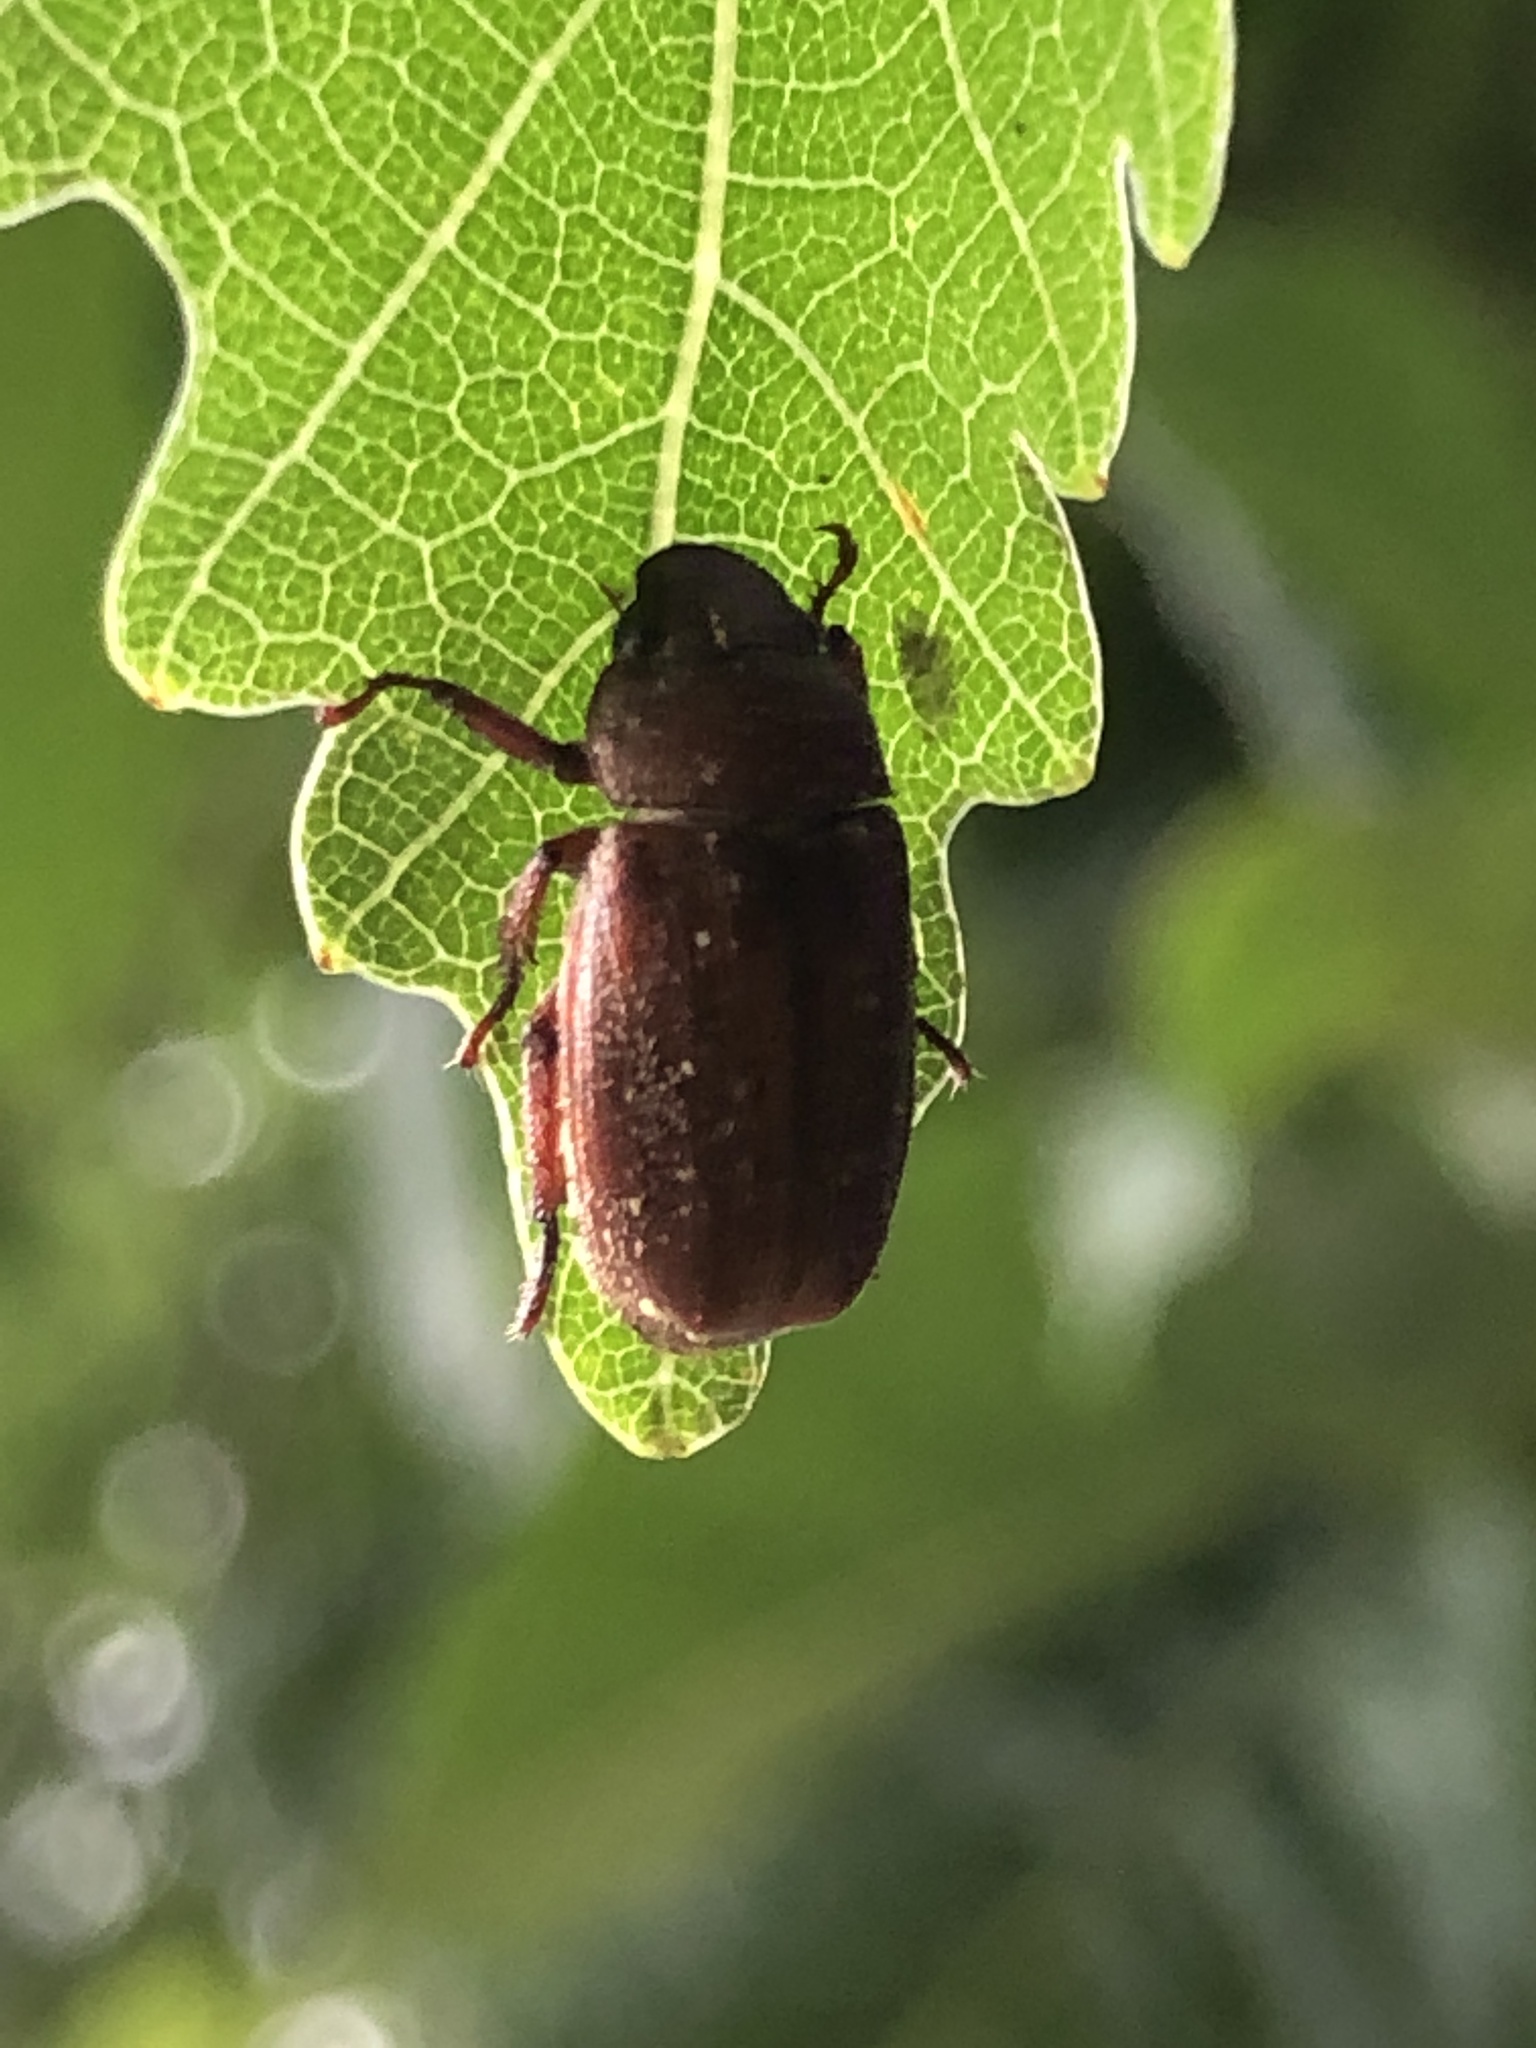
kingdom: Animalia
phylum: Arthropoda
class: Insecta
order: Coleoptera
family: Scarabaeidae
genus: Adoretus
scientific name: Adoretus tenuimaculatus
